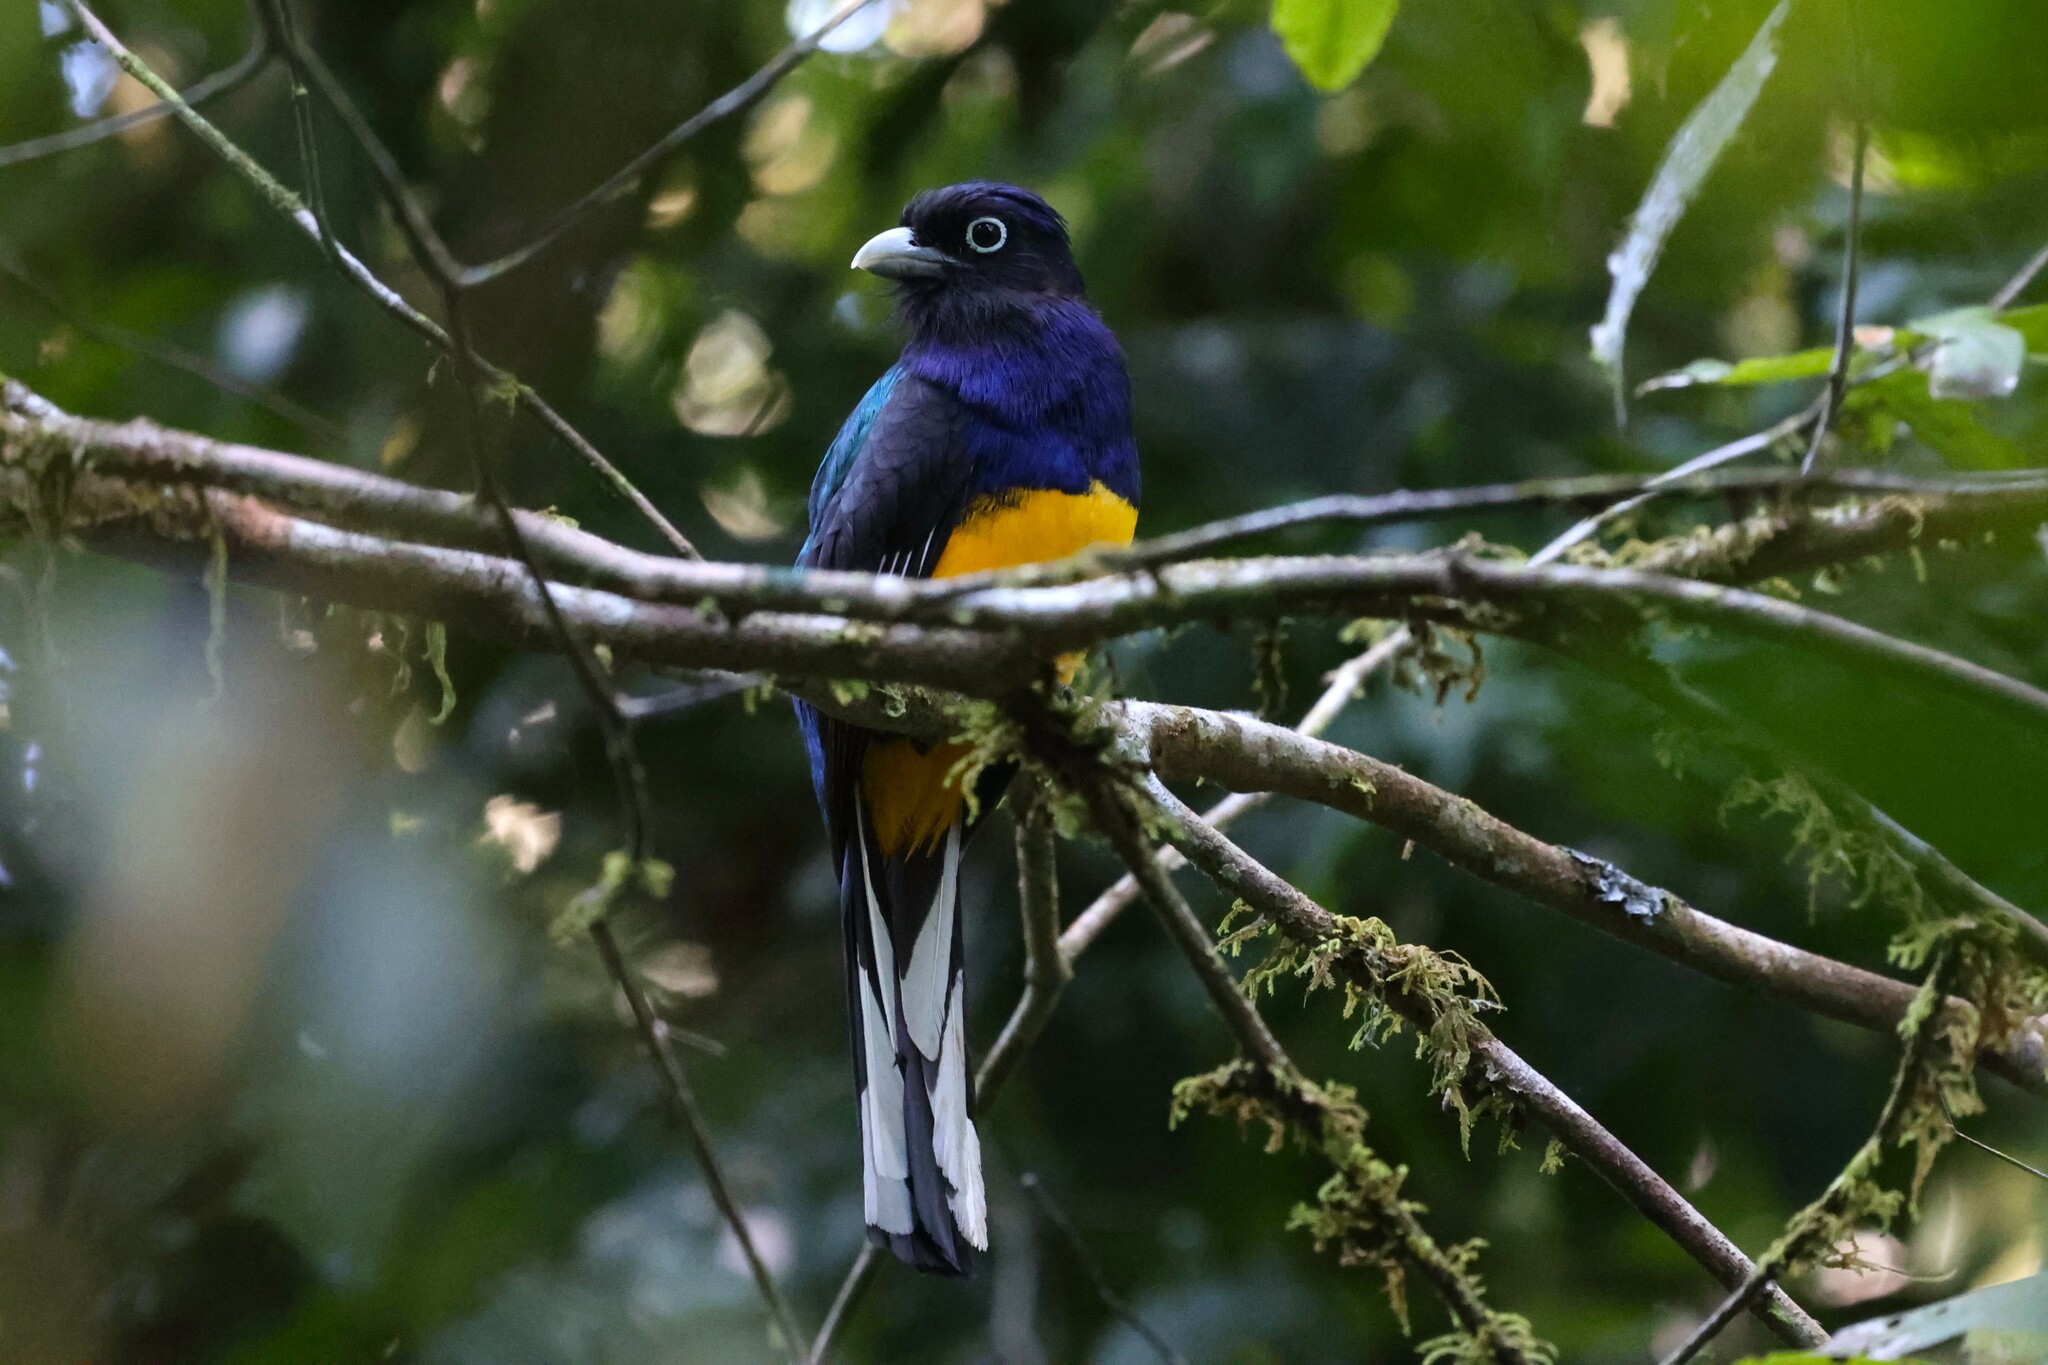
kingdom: Animalia
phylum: Chordata
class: Aves
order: Trogoniformes
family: Trogonidae
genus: Trogon
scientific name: Trogon viridis
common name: Green-backed trogon
